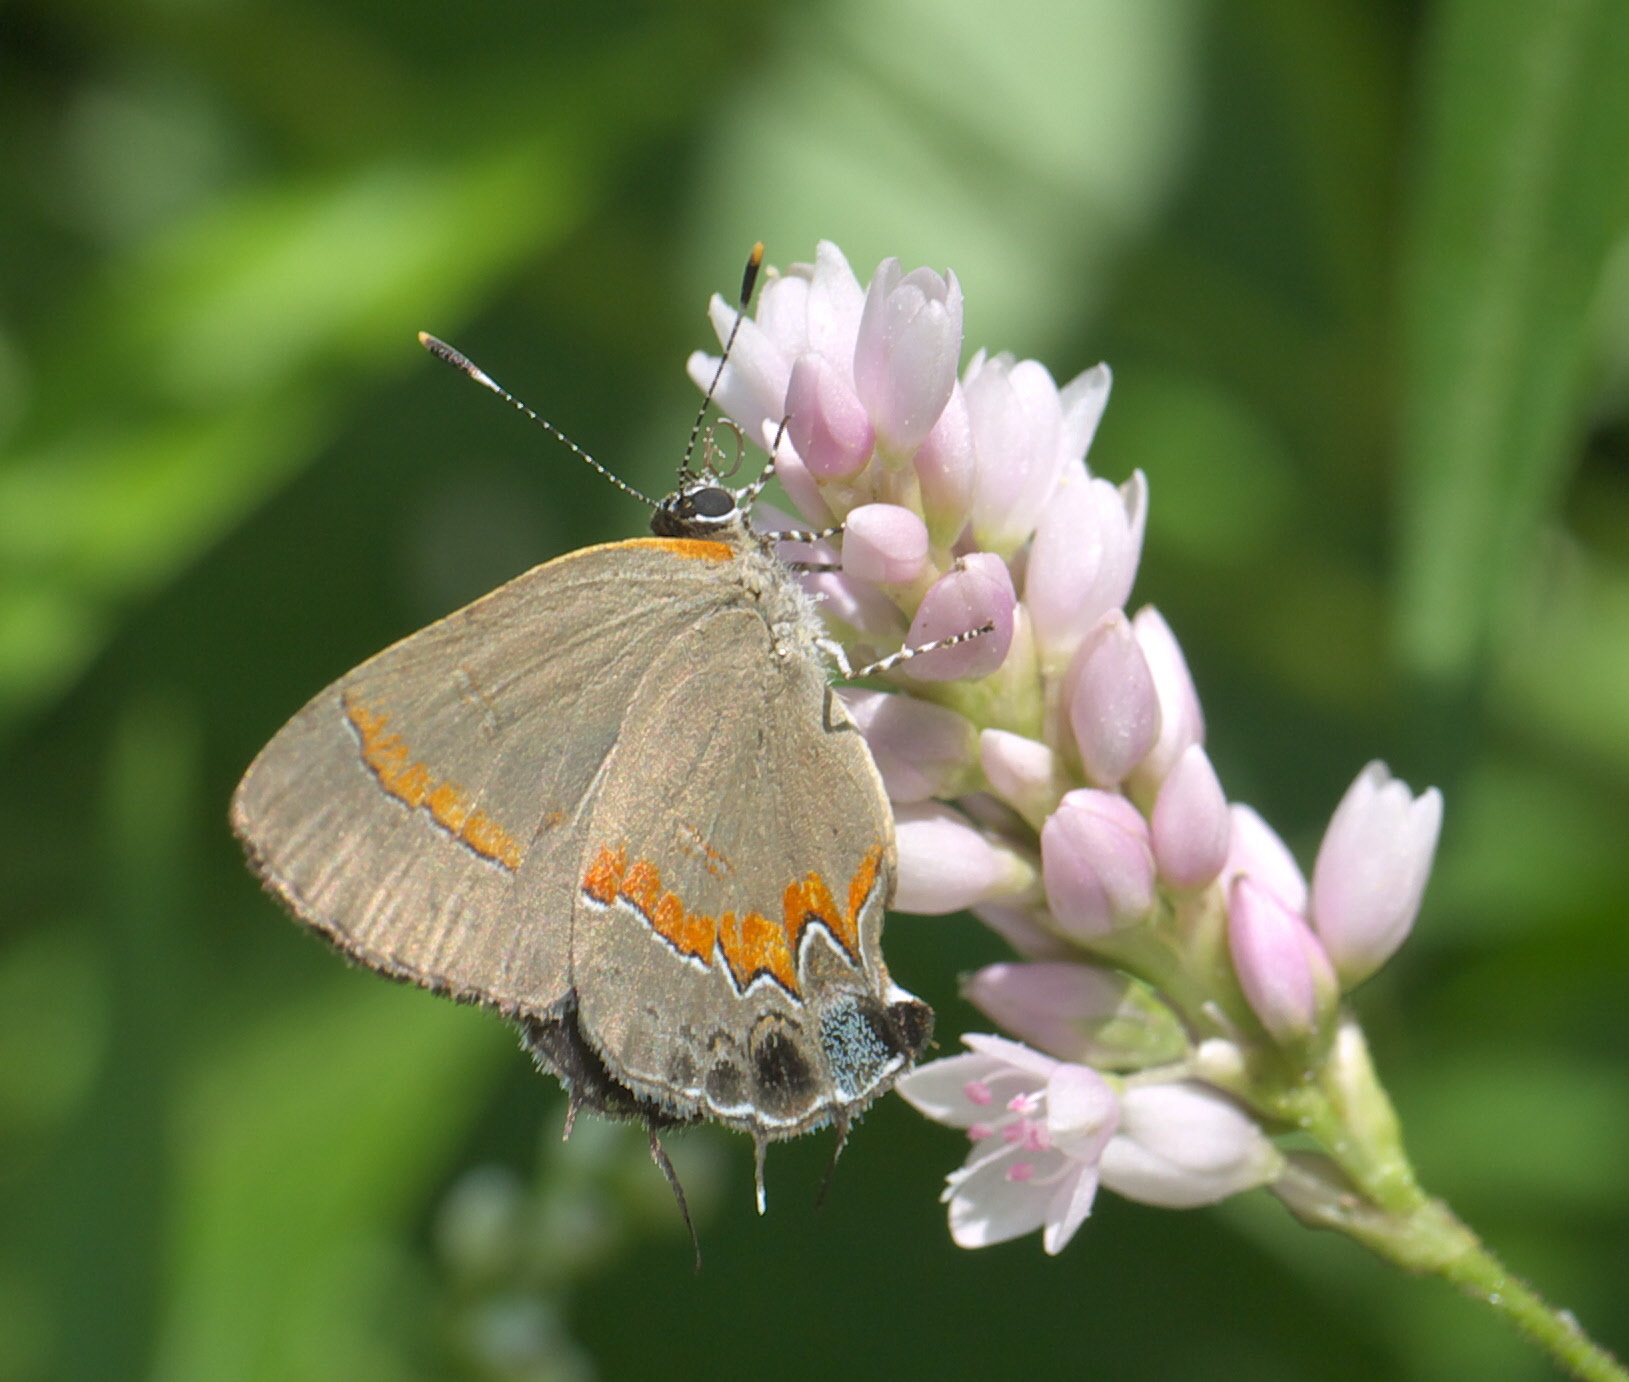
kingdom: Animalia
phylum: Arthropoda
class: Insecta
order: Lepidoptera
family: Lycaenidae
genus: Calycopis
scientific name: Calycopis cecrops
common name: Red-banded hairstreak
